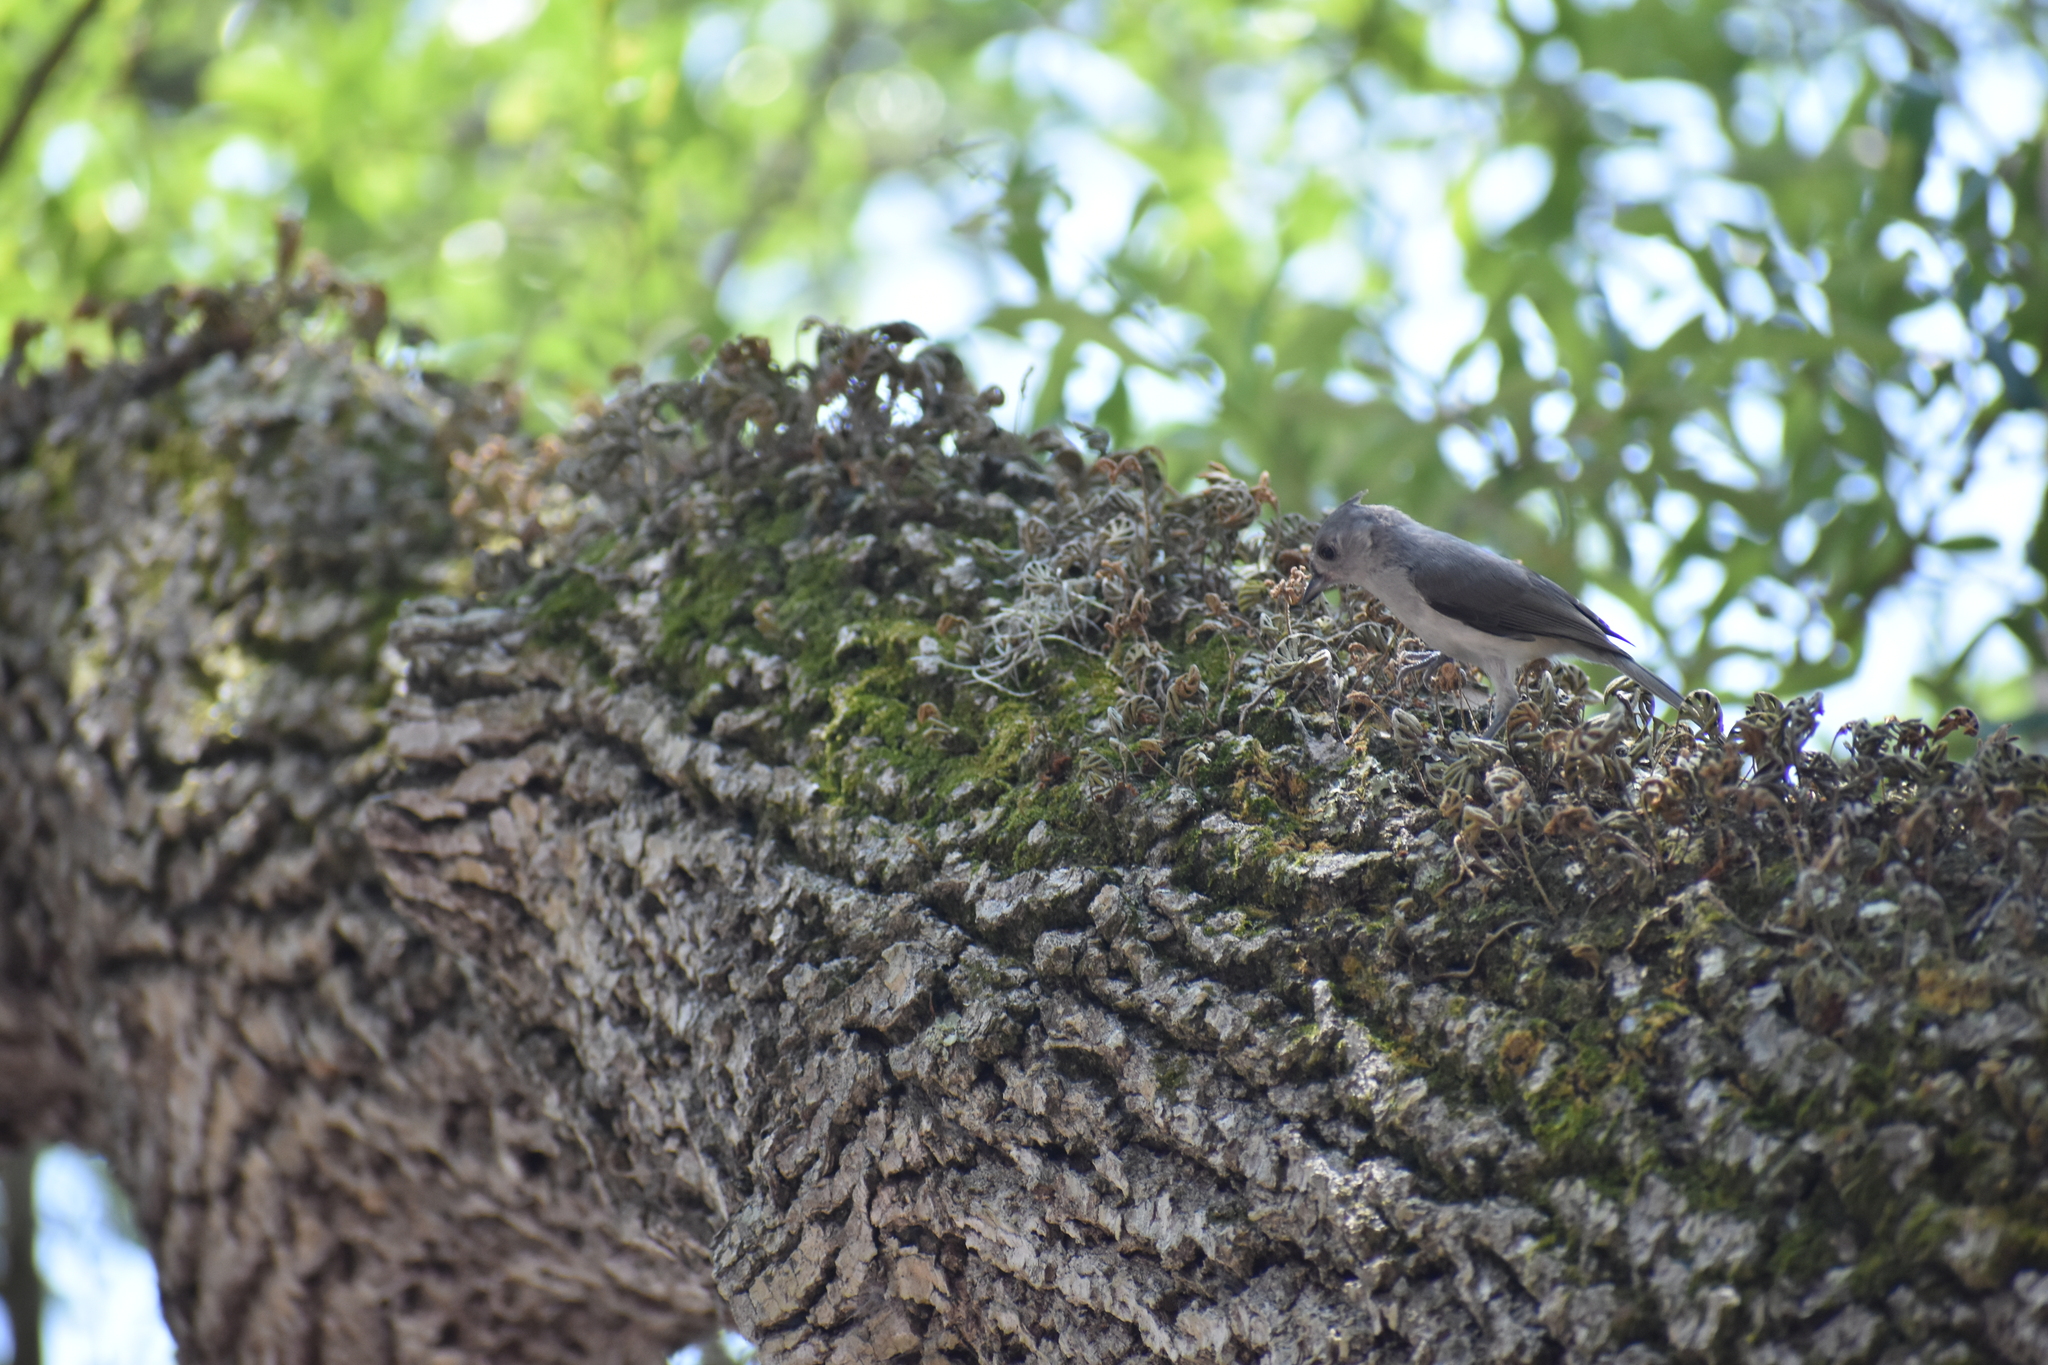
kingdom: Animalia
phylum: Chordata
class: Aves
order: Passeriformes
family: Paridae
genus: Baeolophus
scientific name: Baeolophus bicolor
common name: Tufted titmouse
